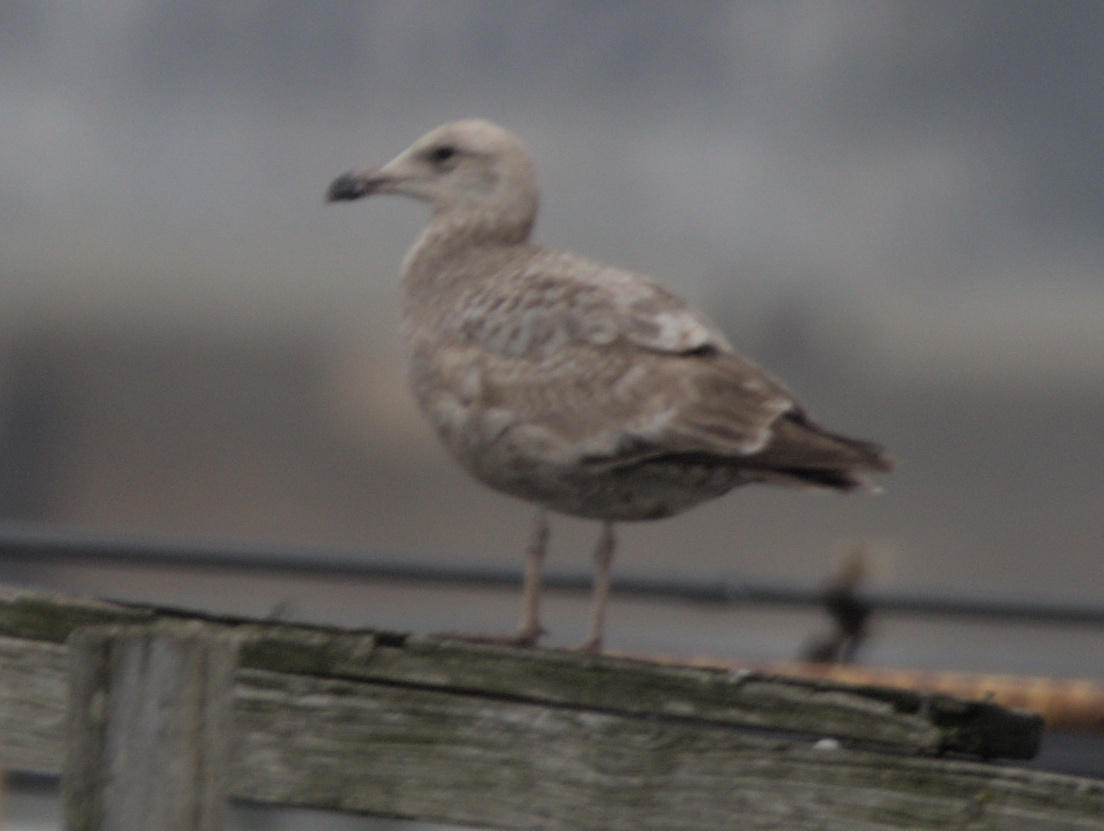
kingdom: Animalia
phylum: Chordata
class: Aves
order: Charadriiformes
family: Laridae
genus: Larus
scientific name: Larus argentatus
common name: Herring gull
